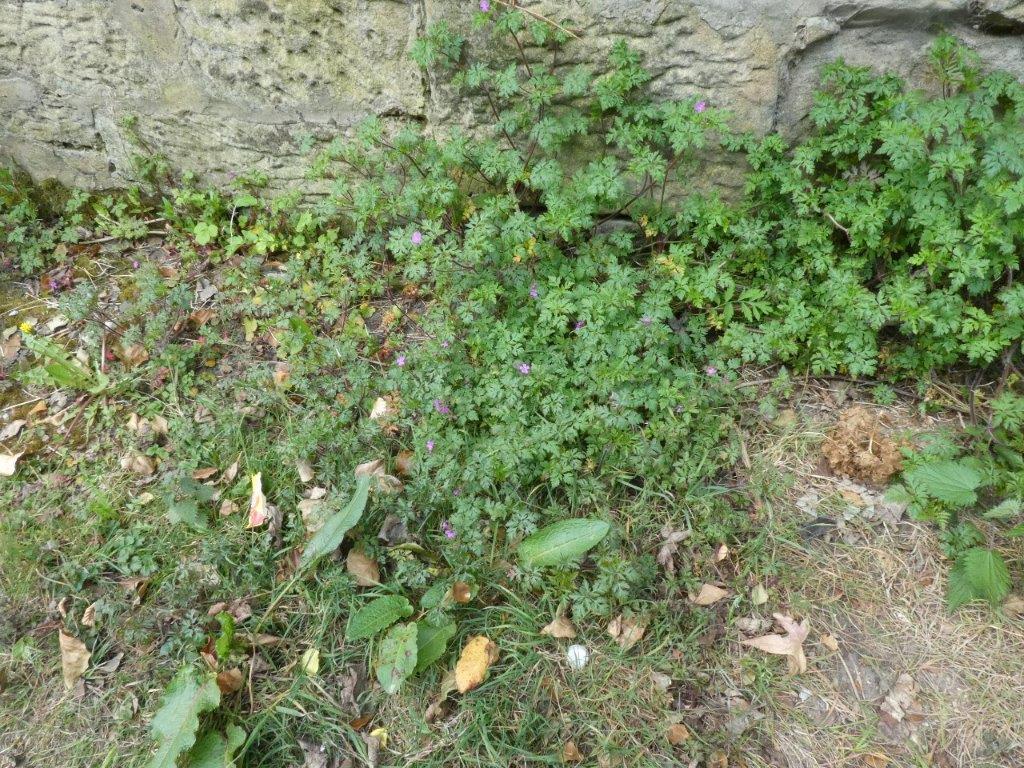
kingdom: Plantae
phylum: Tracheophyta
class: Magnoliopsida
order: Geraniales
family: Geraniaceae
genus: Geranium
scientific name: Geranium robertianum
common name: Herb-robert
